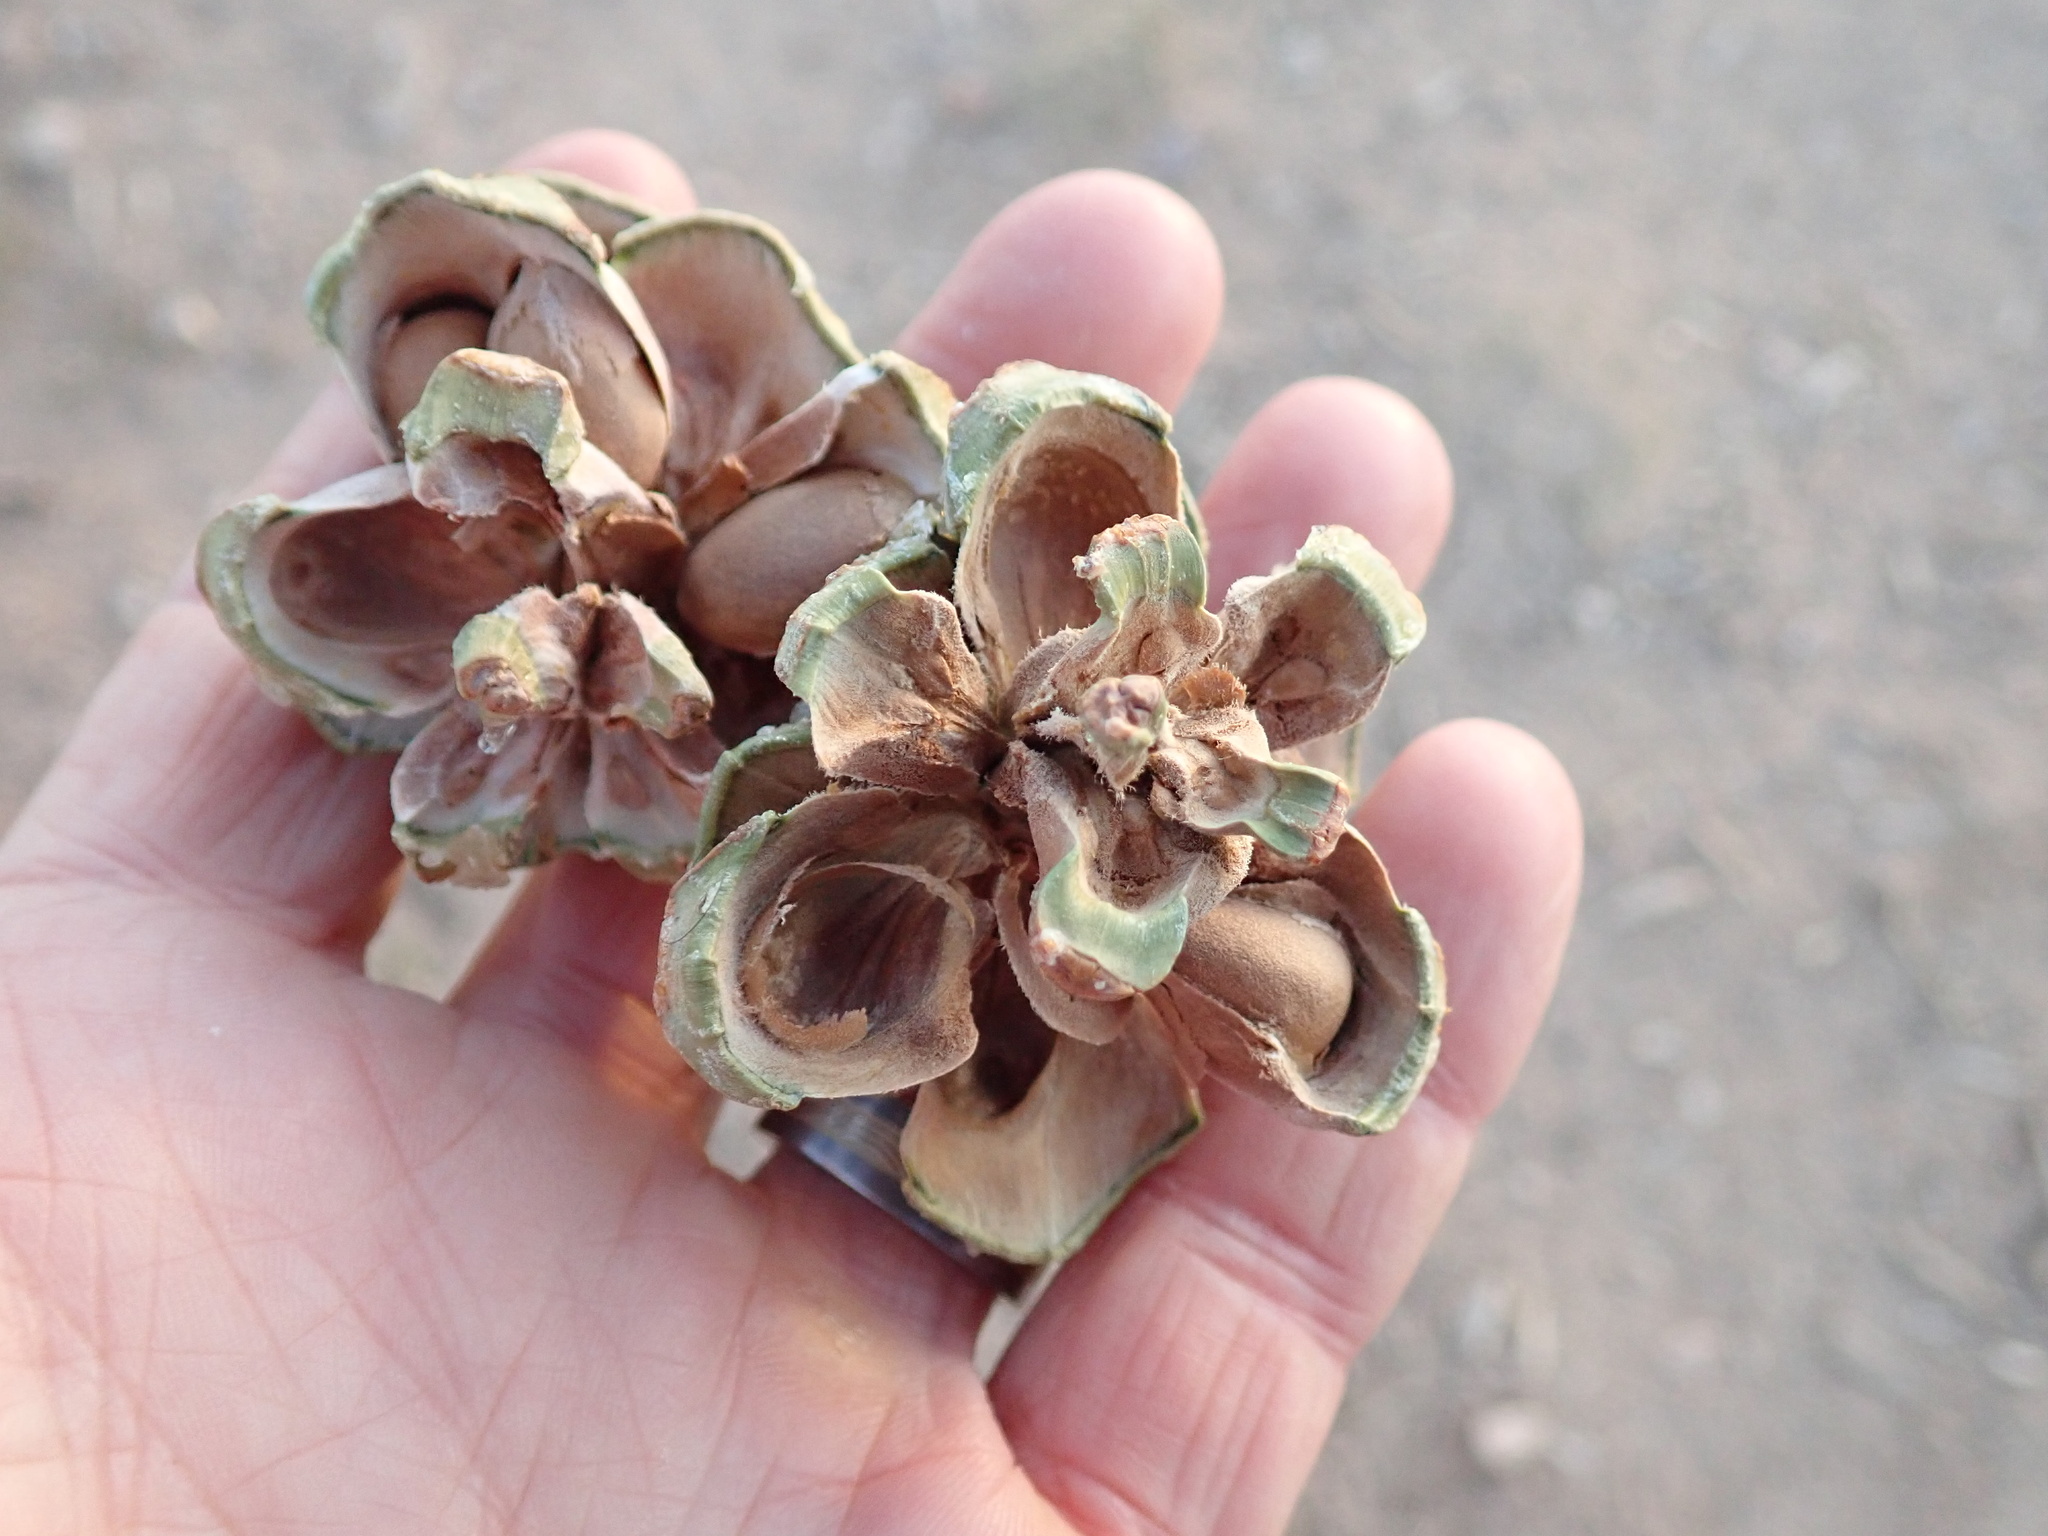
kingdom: Plantae
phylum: Tracheophyta
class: Pinopsida
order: Pinales
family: Pinaceae
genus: Pinus
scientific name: Pinus edulis
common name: Colorado pinyon
